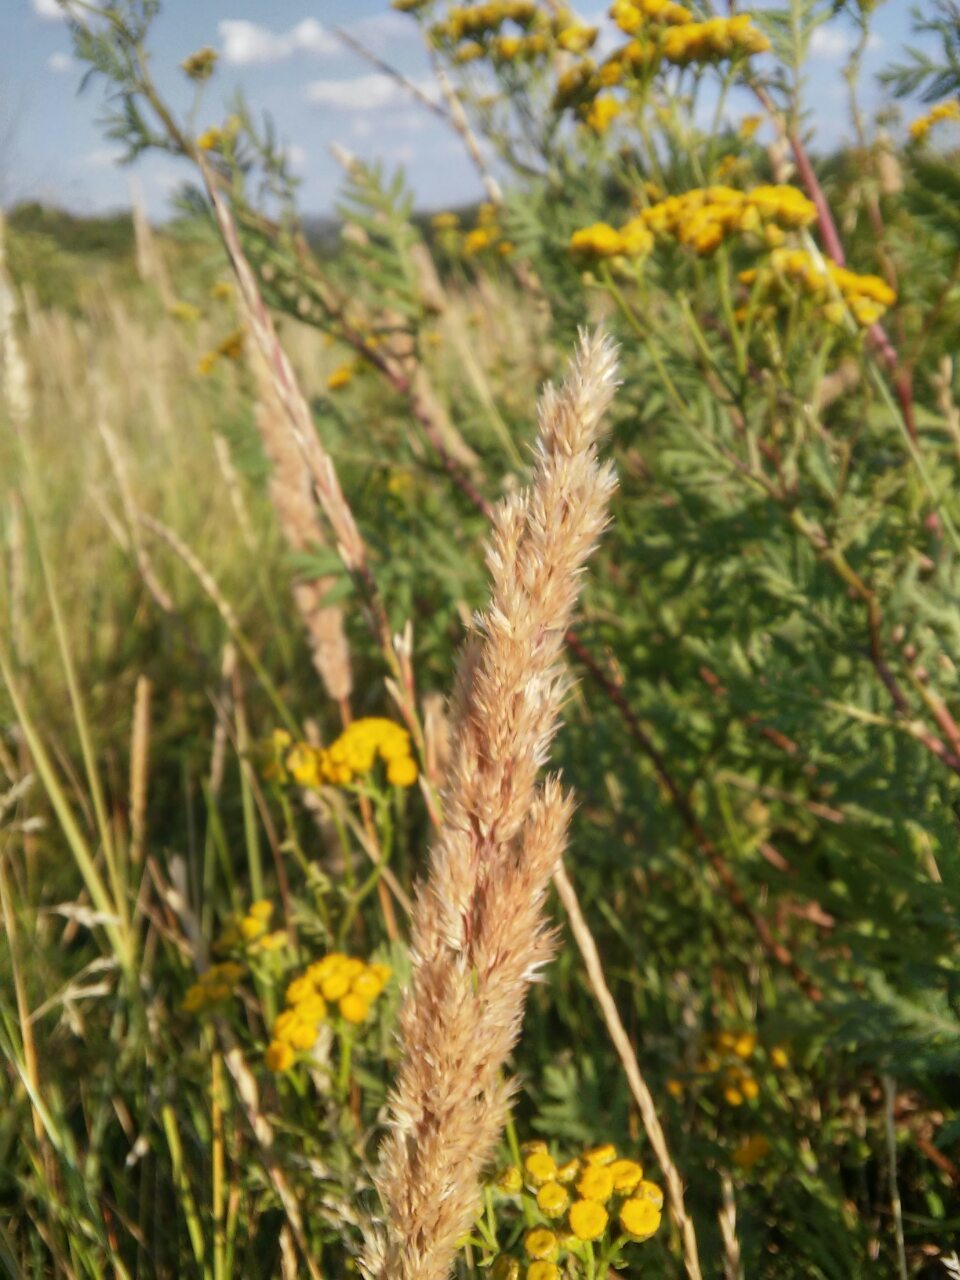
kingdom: Plantae
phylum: Tracheophyta
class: Liliopsida
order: Poales
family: Poaceae
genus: Calamagrostis
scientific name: Calamagrostis epigejos
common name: Wood small-reed
